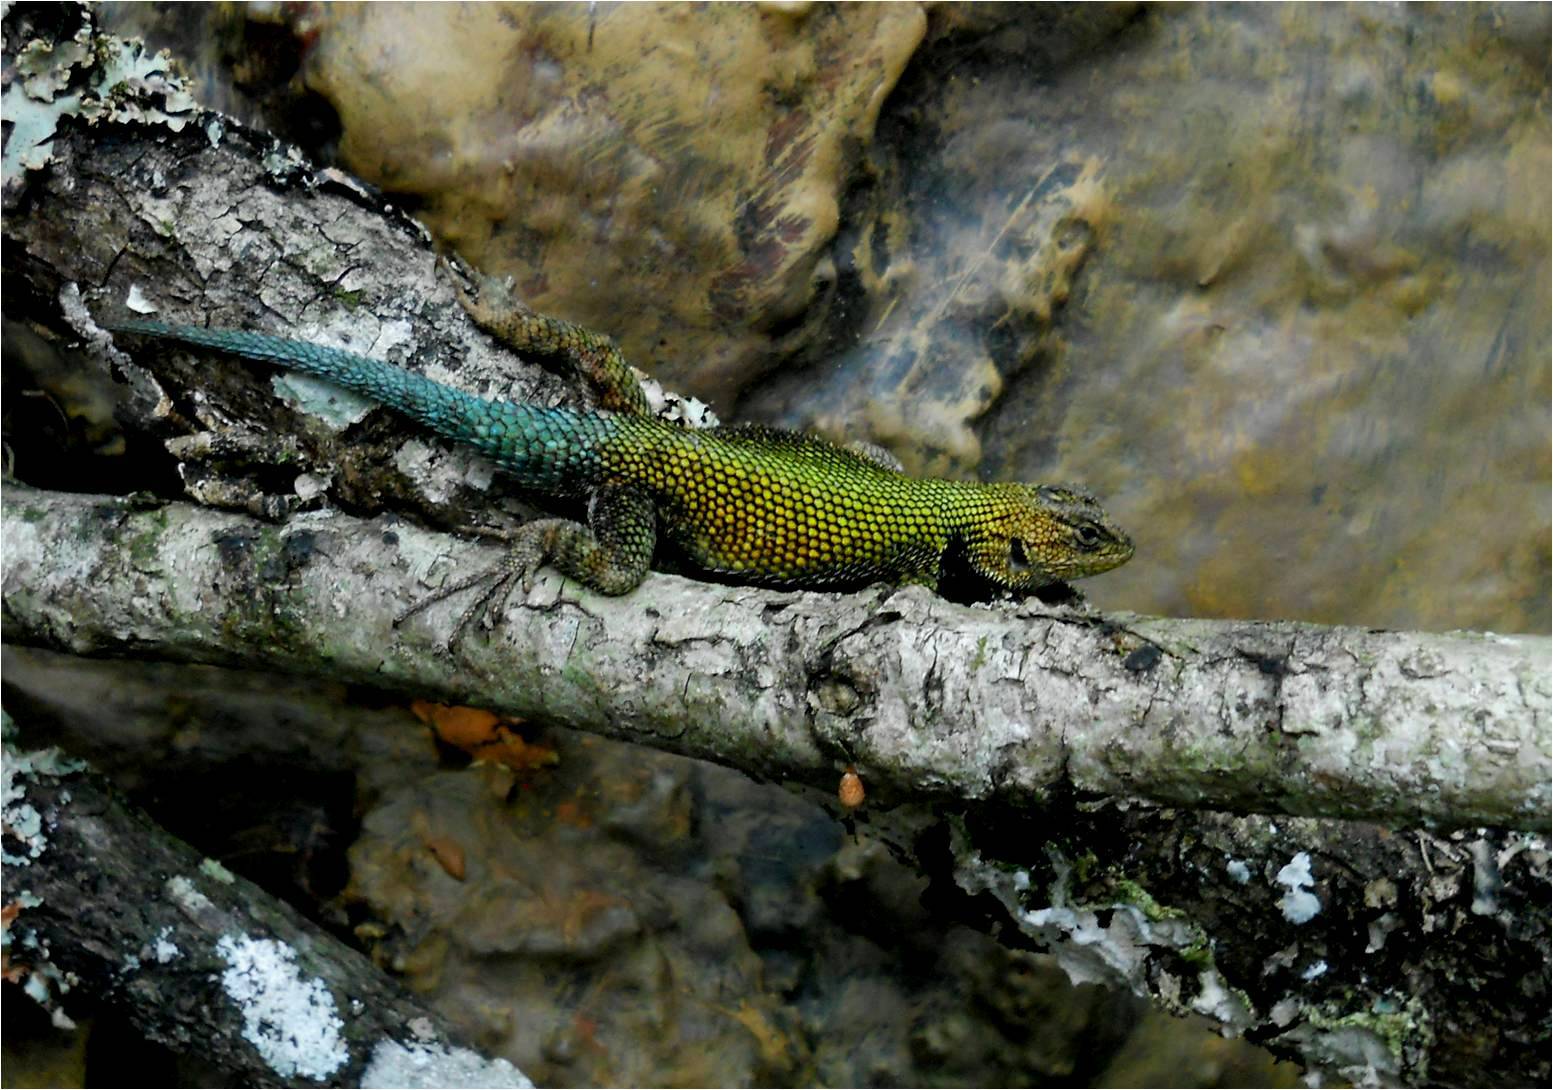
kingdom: Animalia
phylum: Chordata
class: Squamata
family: Phrynosomatidae
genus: Sceloporus
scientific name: Sceloporus taeniocnemis
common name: Guatemalan emerald spiny lizard
